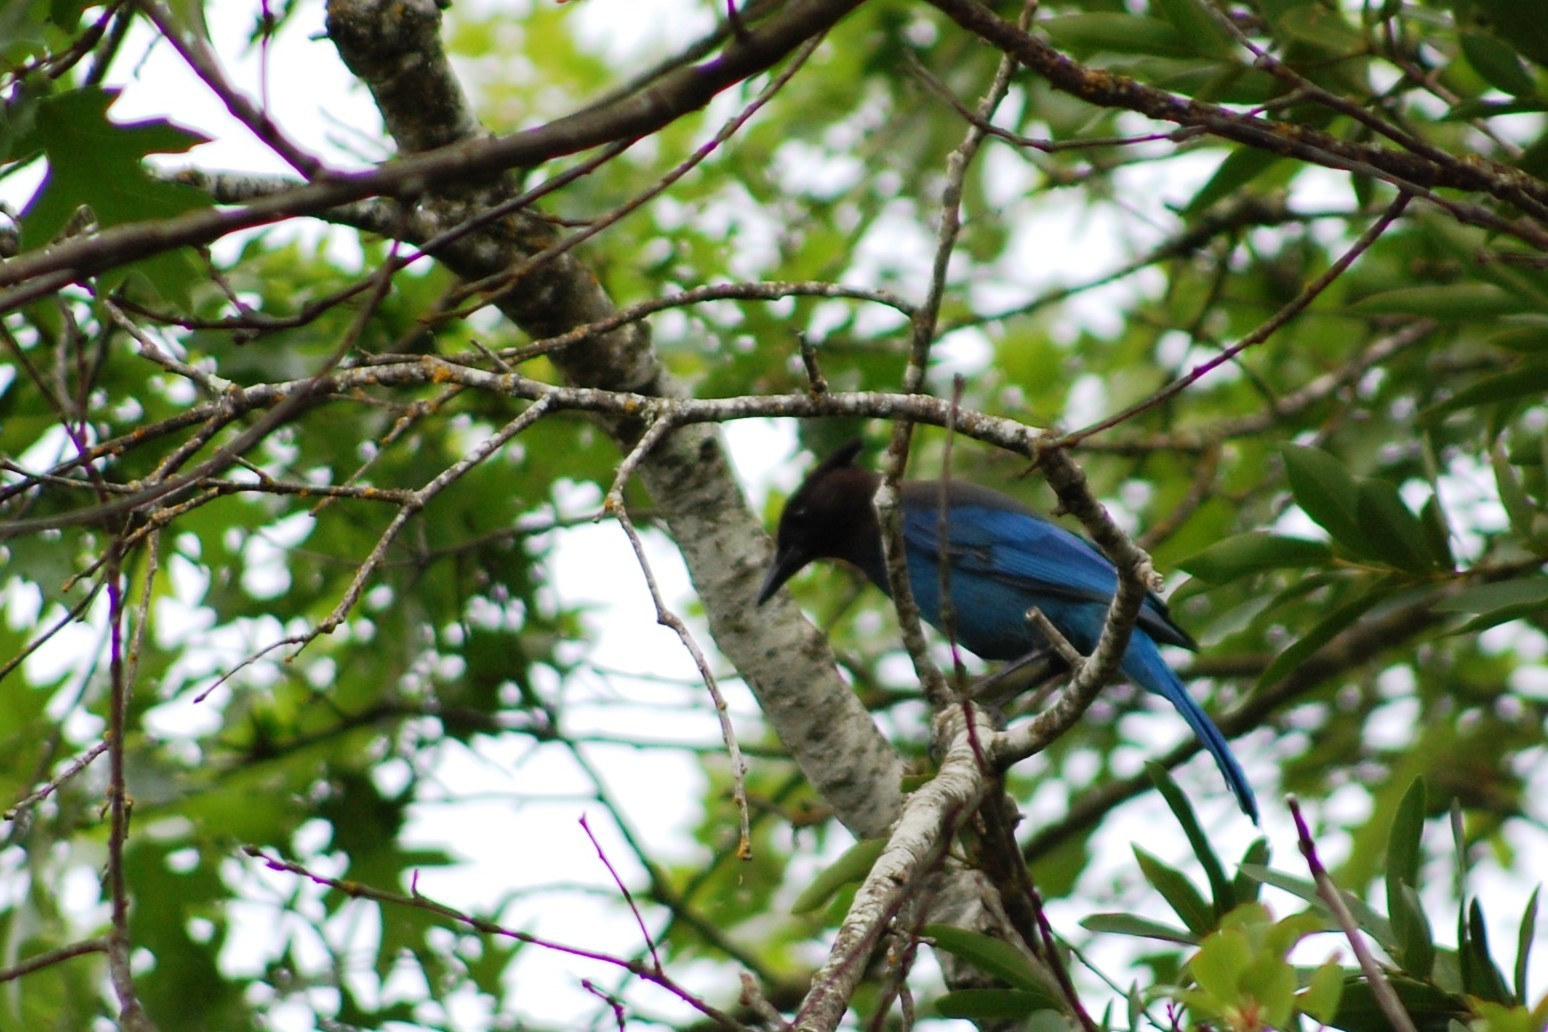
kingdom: Animalia
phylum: Chordata
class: Aves
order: Passeriformes
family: Corvidae
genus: Cyanocitta
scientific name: Cyanocitta stelleri
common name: Steller's jay
